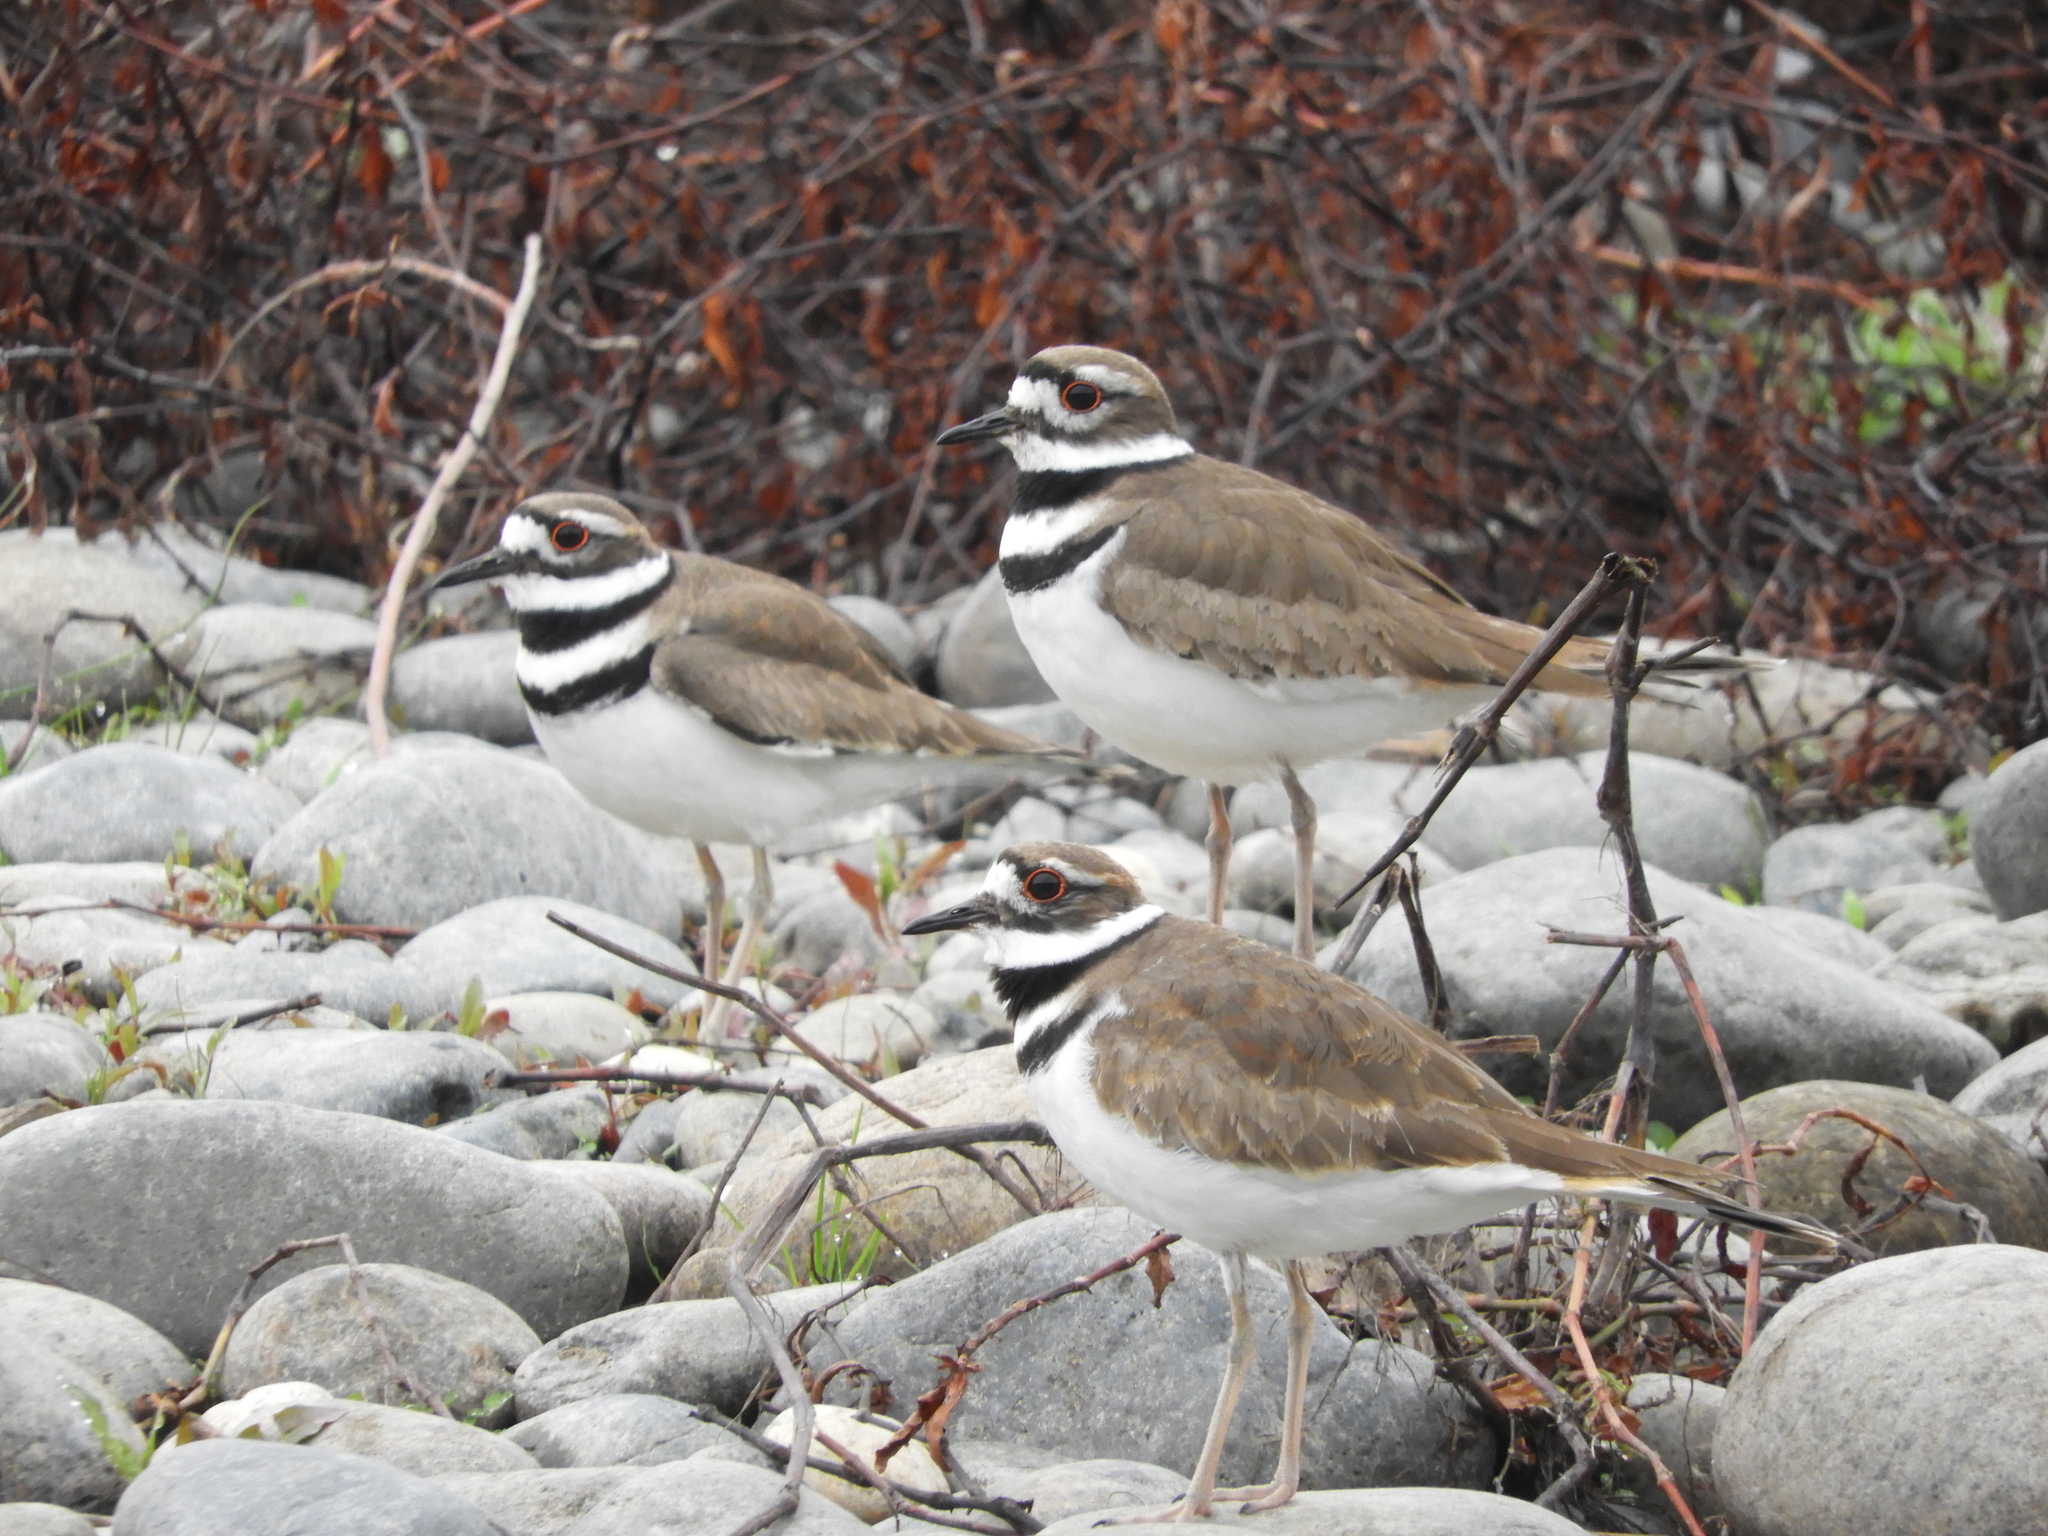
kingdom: Animalia
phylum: Chordata
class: Aves
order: Charadriiformes
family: Charadriidae
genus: Charadrius
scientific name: Charadrius vociferus
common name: Killdeer
